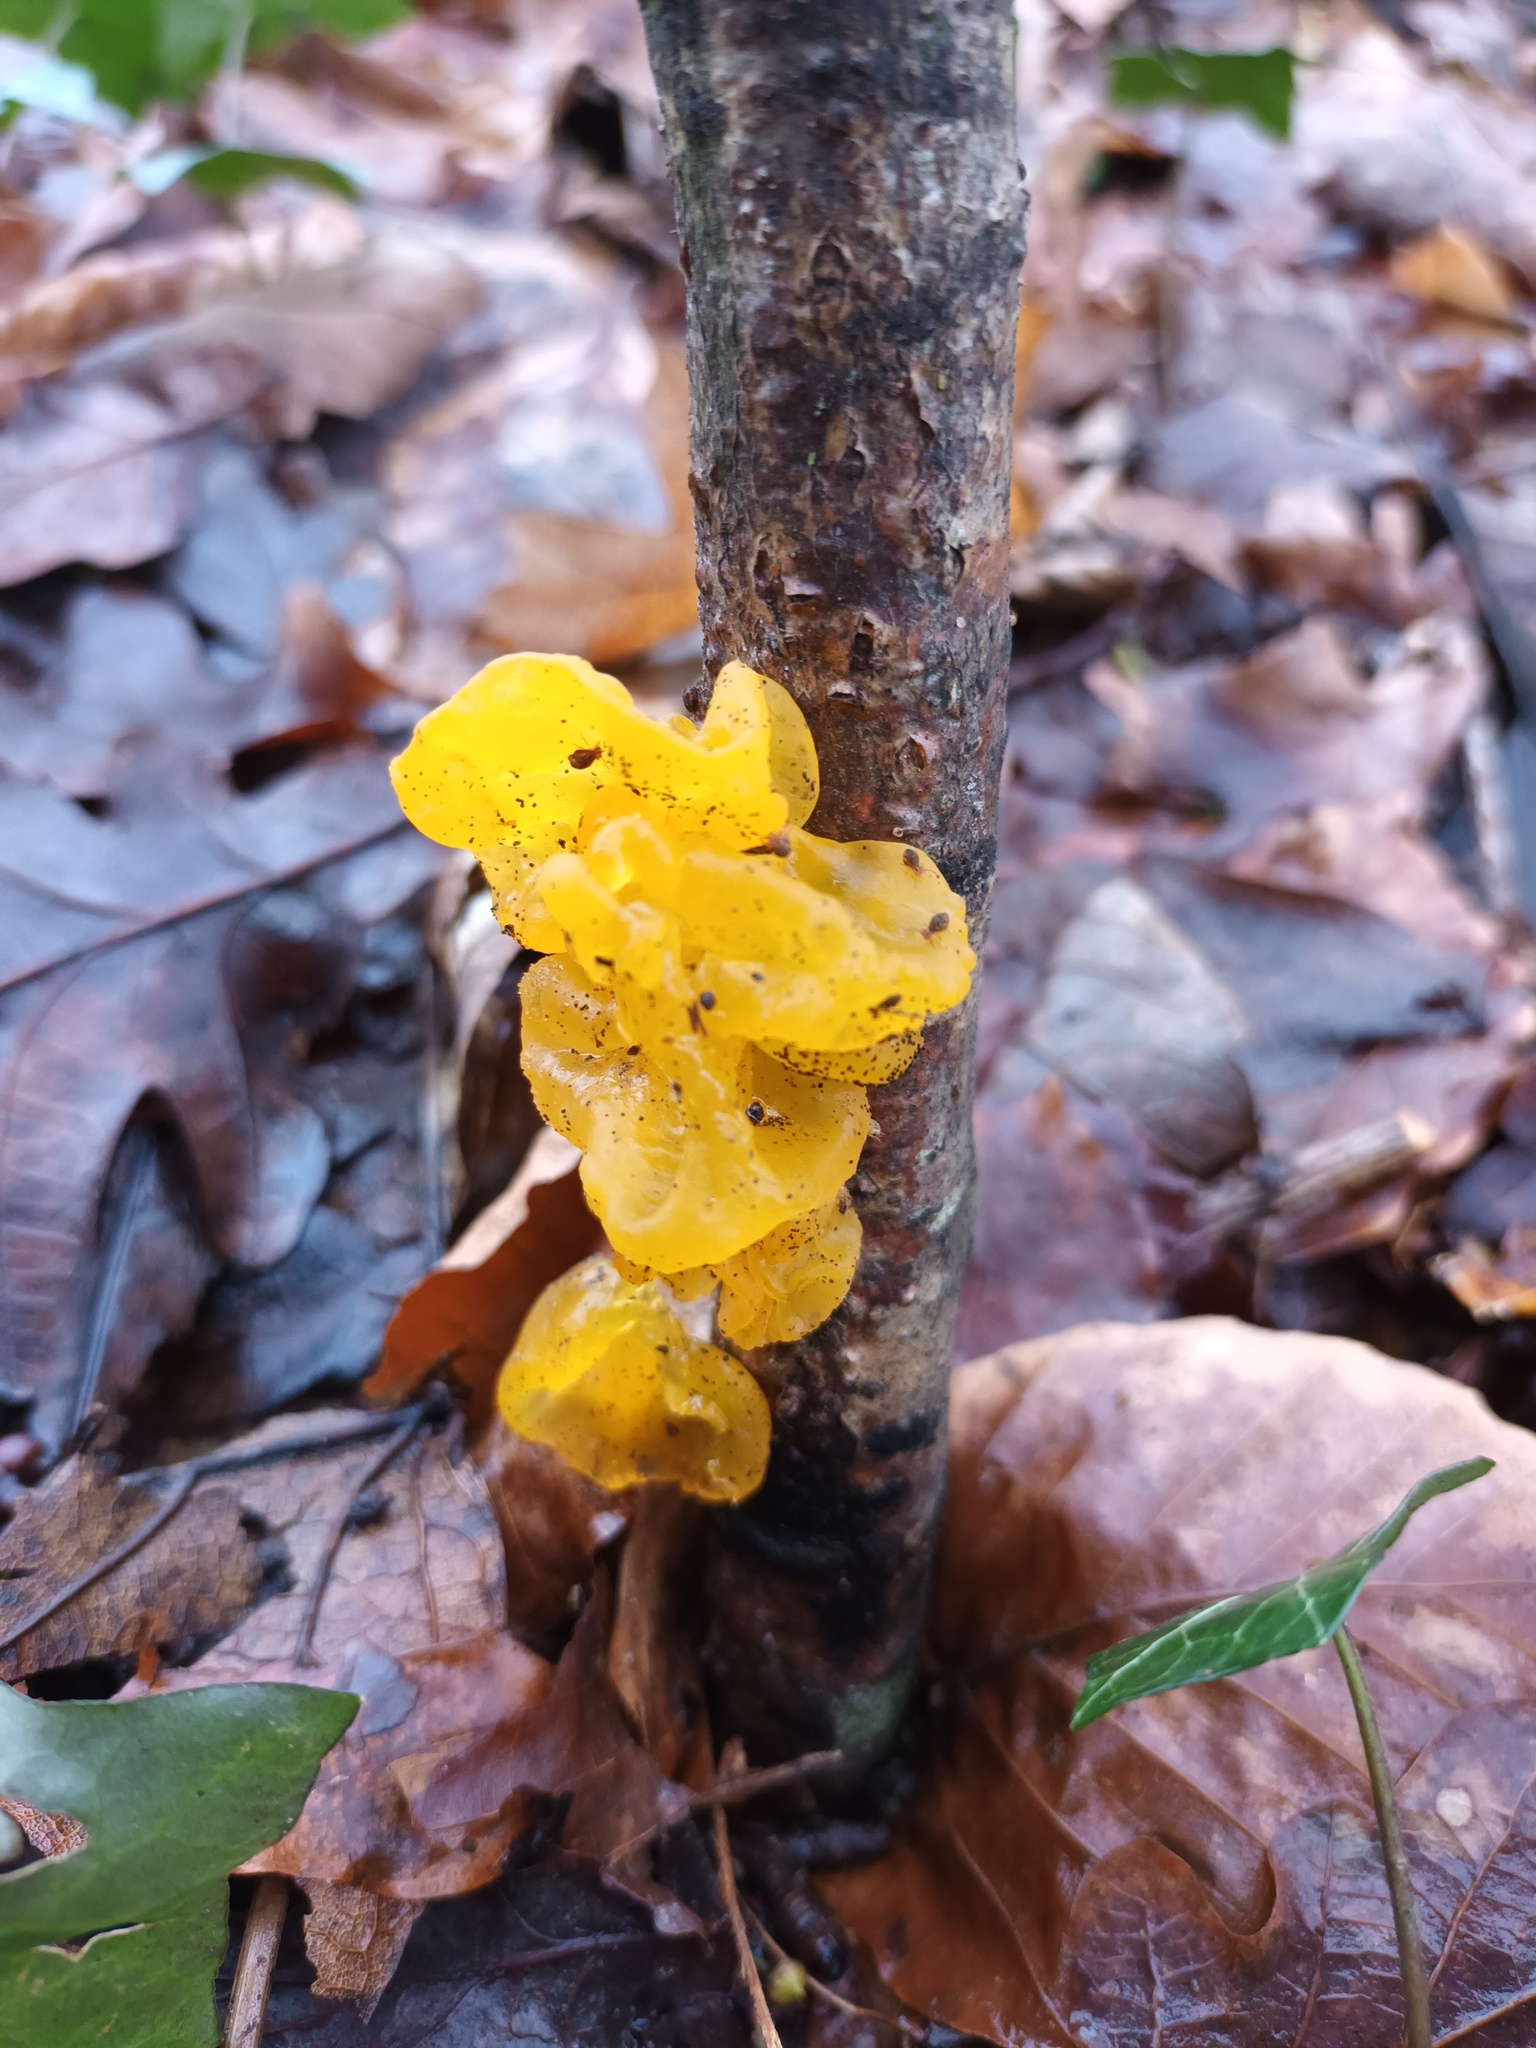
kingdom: Fungi
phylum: Basidiomycota
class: Tremellomycetes
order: Tremellales
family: Tremellaceae
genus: Tremella
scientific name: Tremella mesenterica
